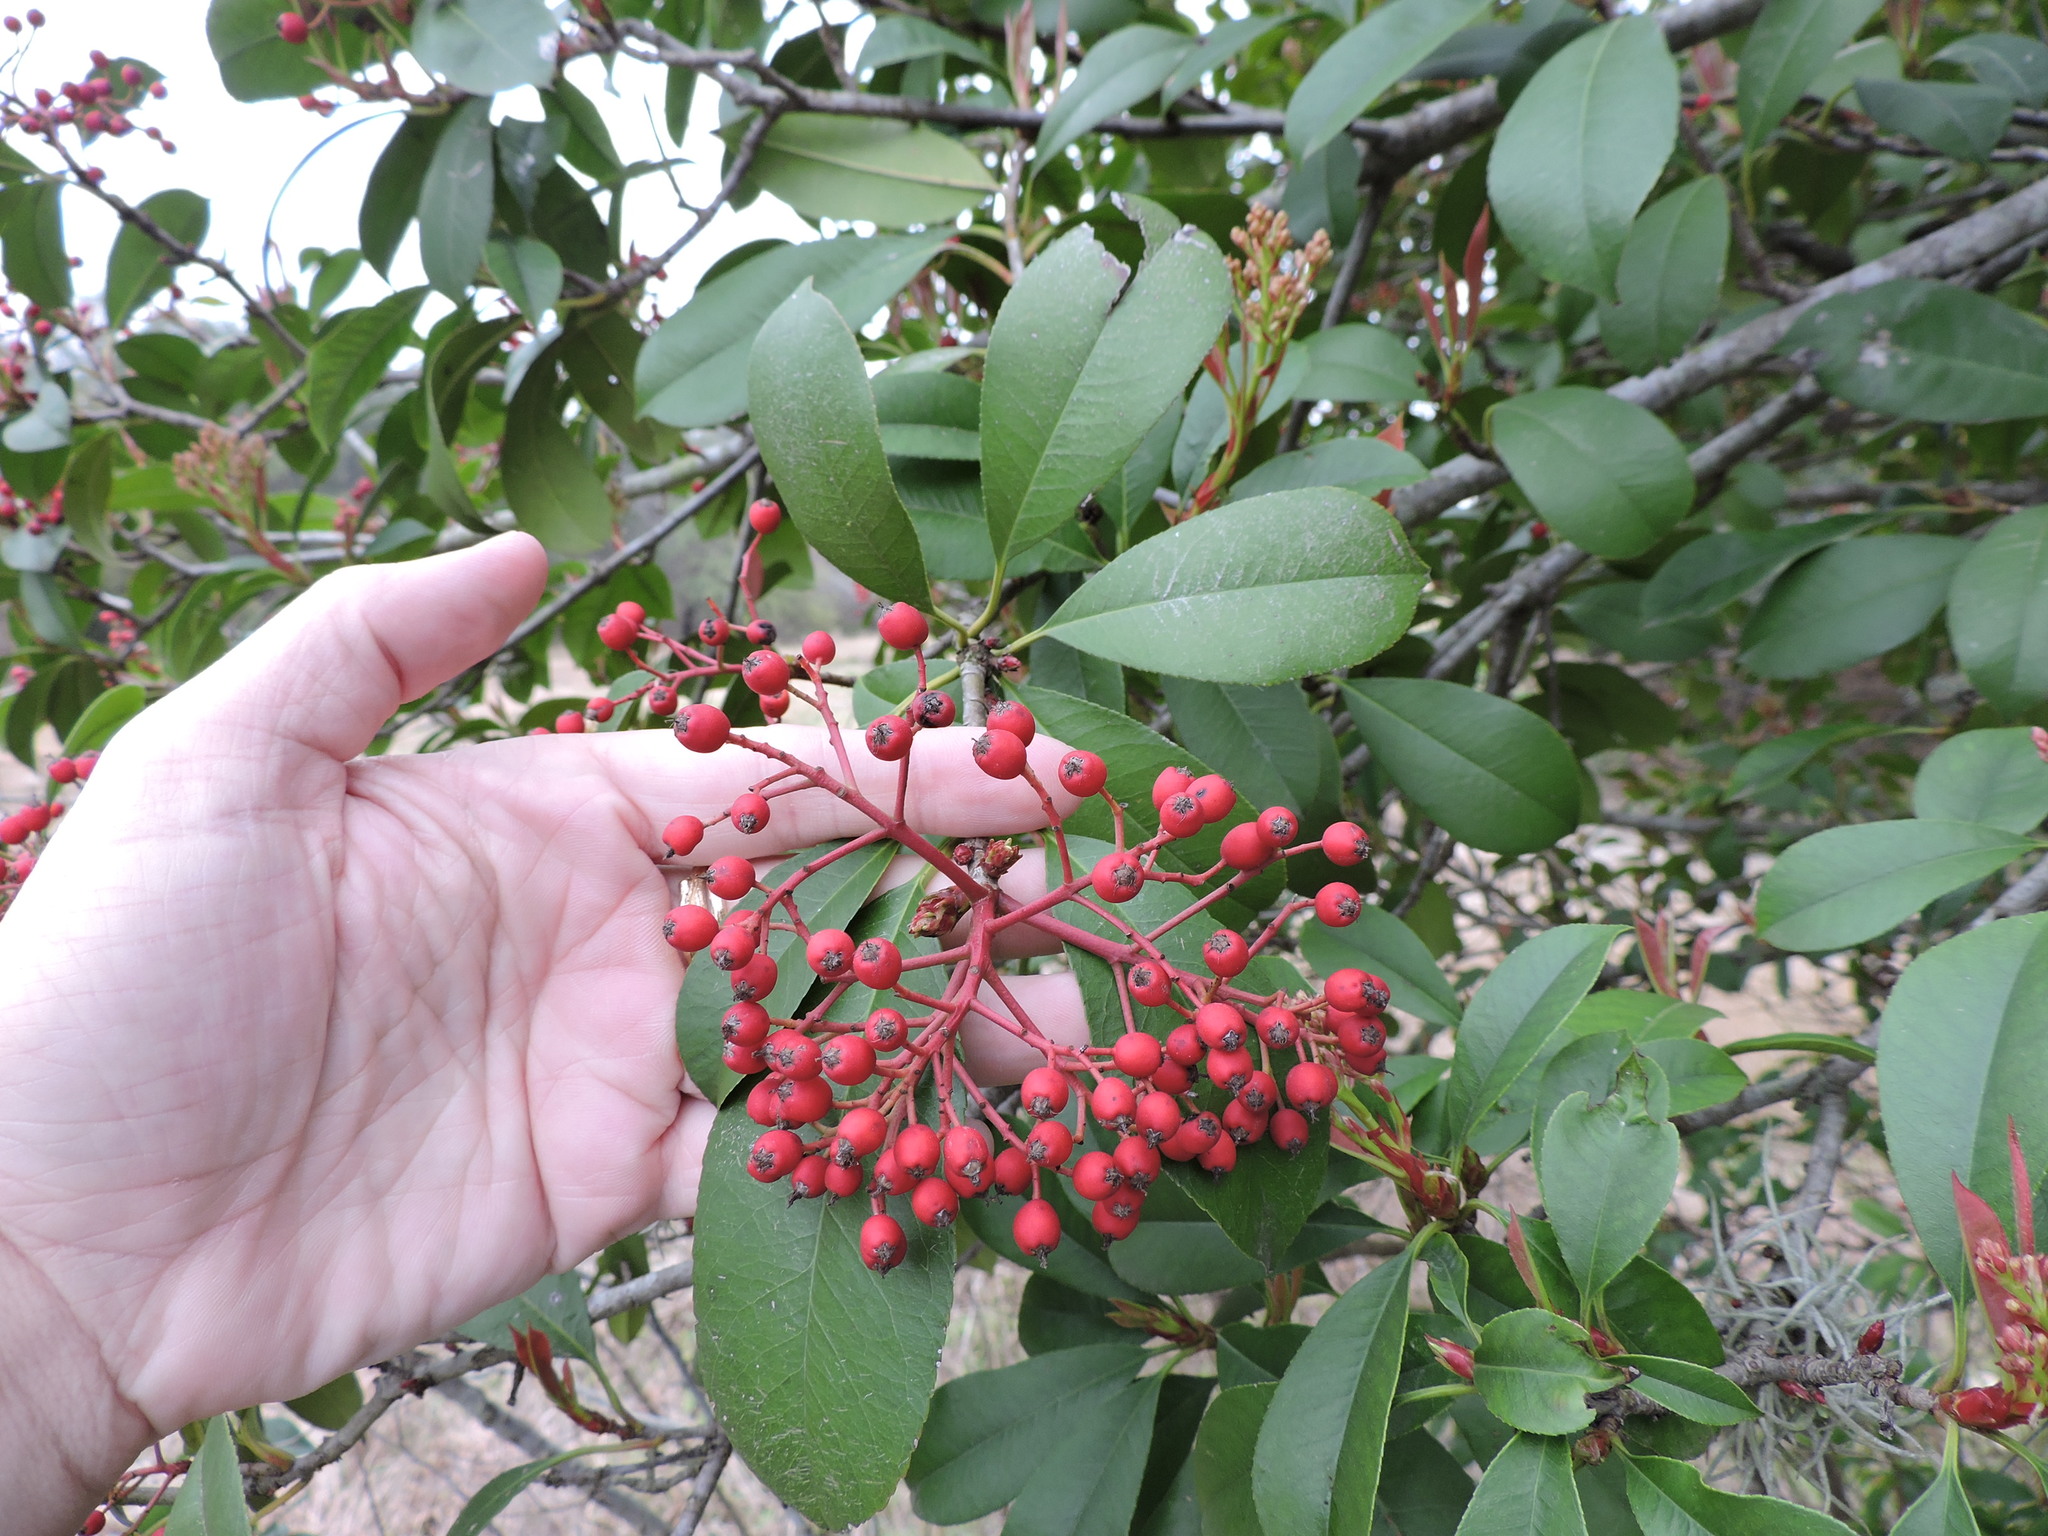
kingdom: Plantae
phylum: Tracheophyta
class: Magnoliopsida
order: Rosales
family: Rosaceae
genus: Photinia
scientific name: Photinia fraseri
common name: Fraser's photinia
